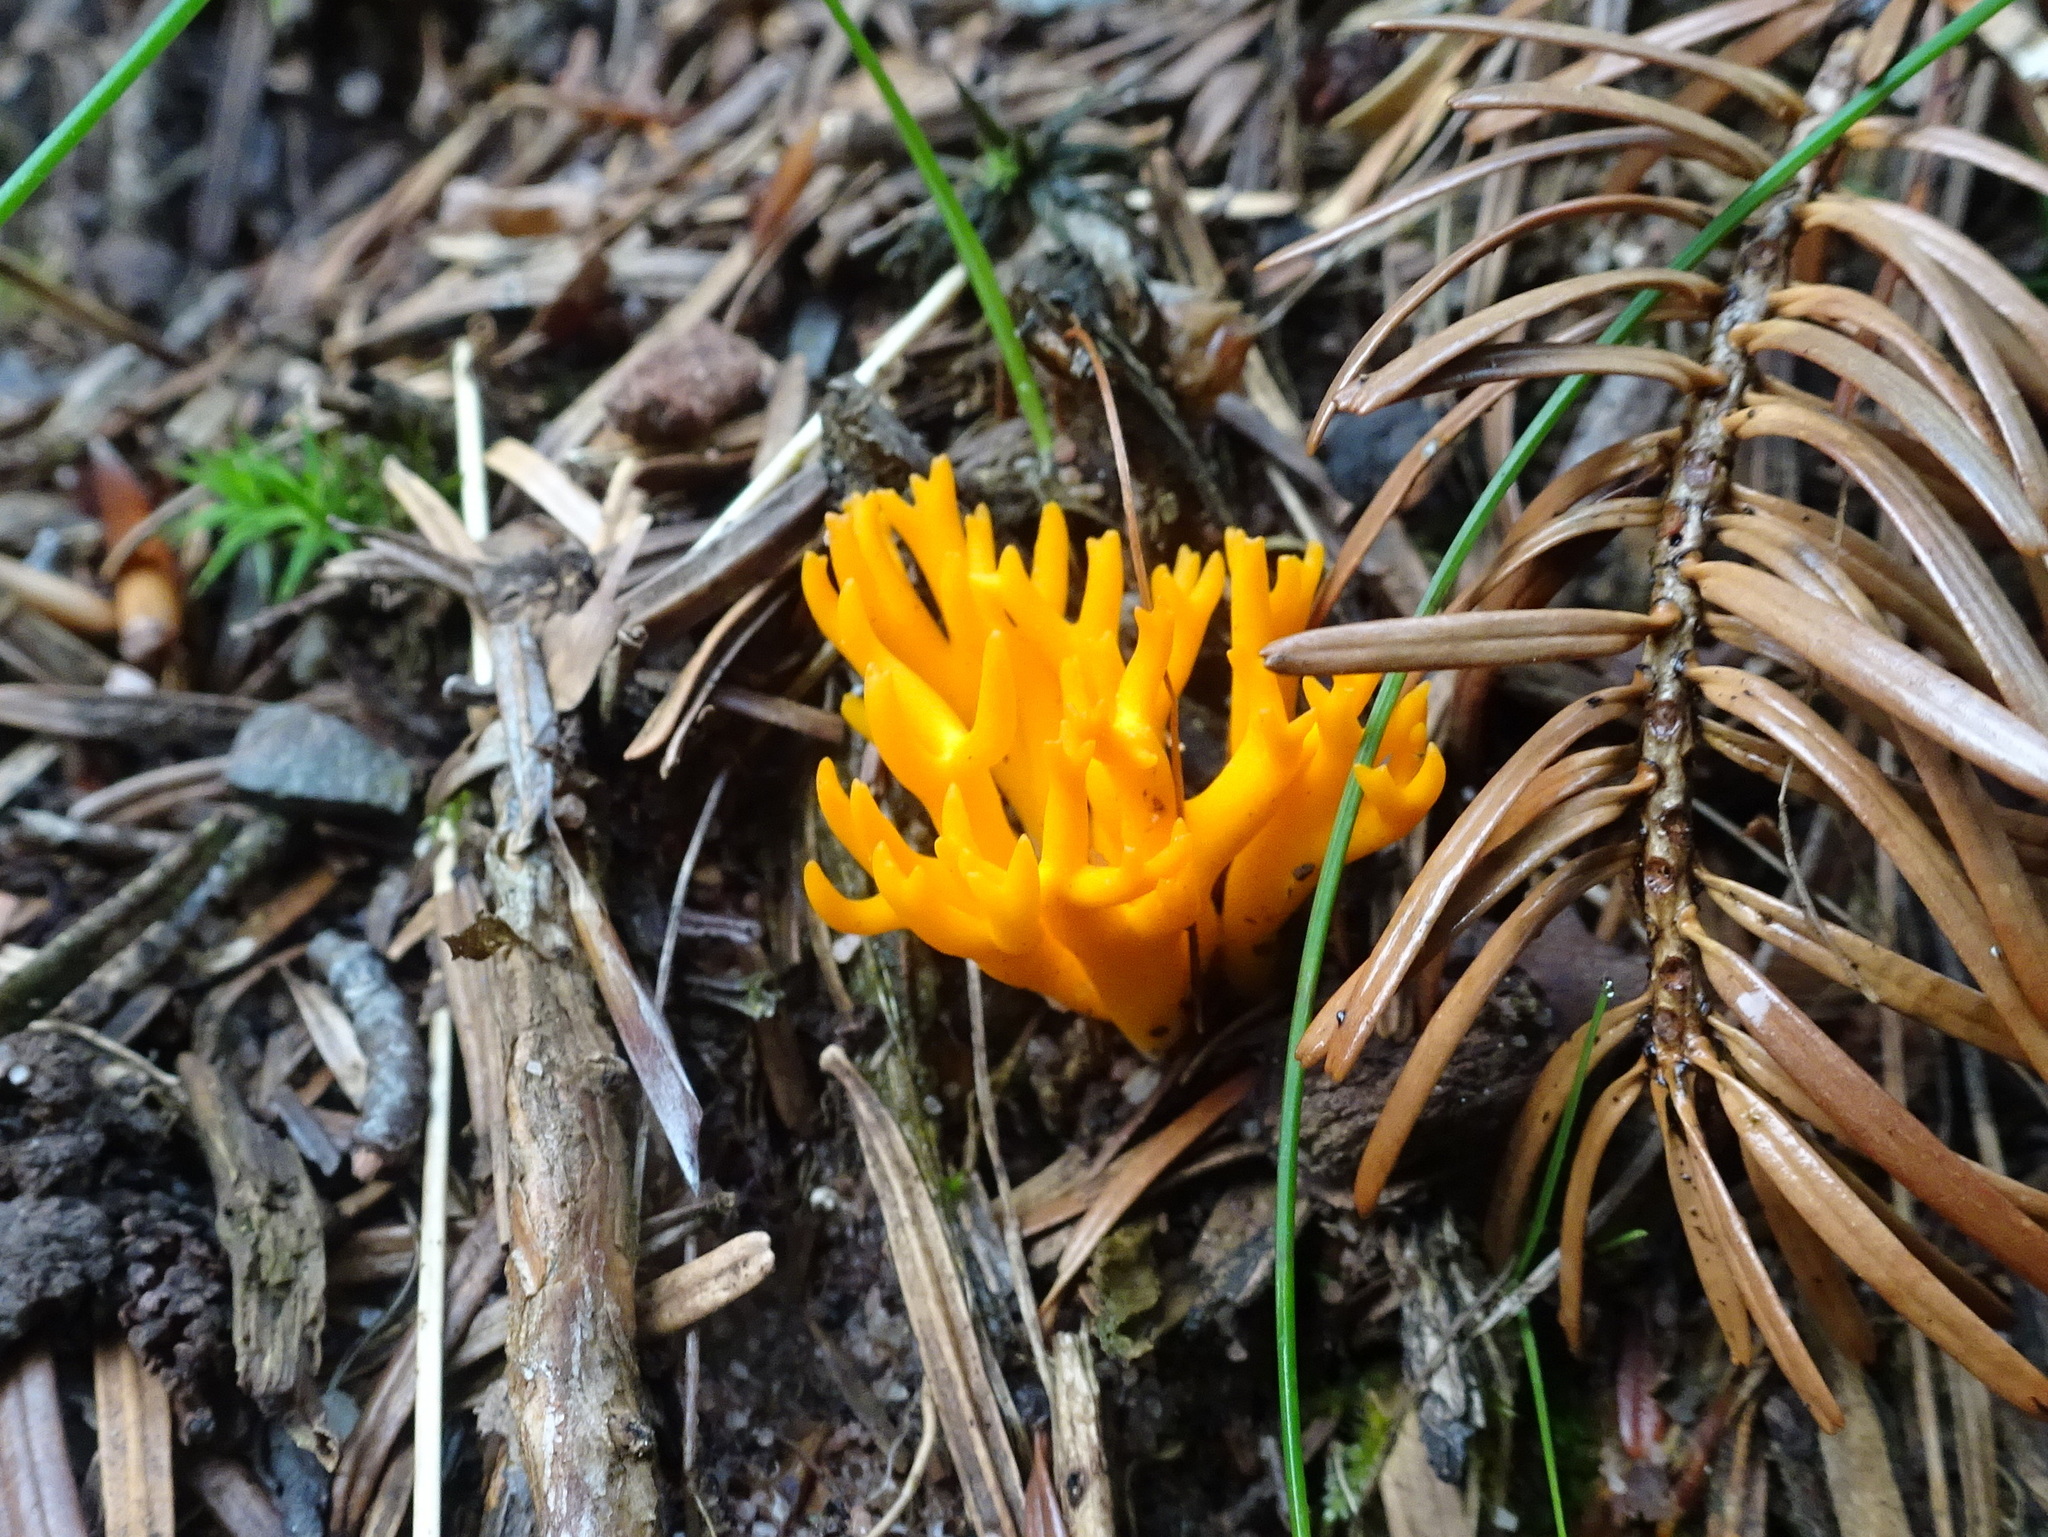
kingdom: Fungi
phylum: Basidiomycota
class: Dacrymycetes
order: Dacrymycetales
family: Dacrymycetaceae
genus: Calocera
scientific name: Calocera viscosa
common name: Yellow stagshorn
